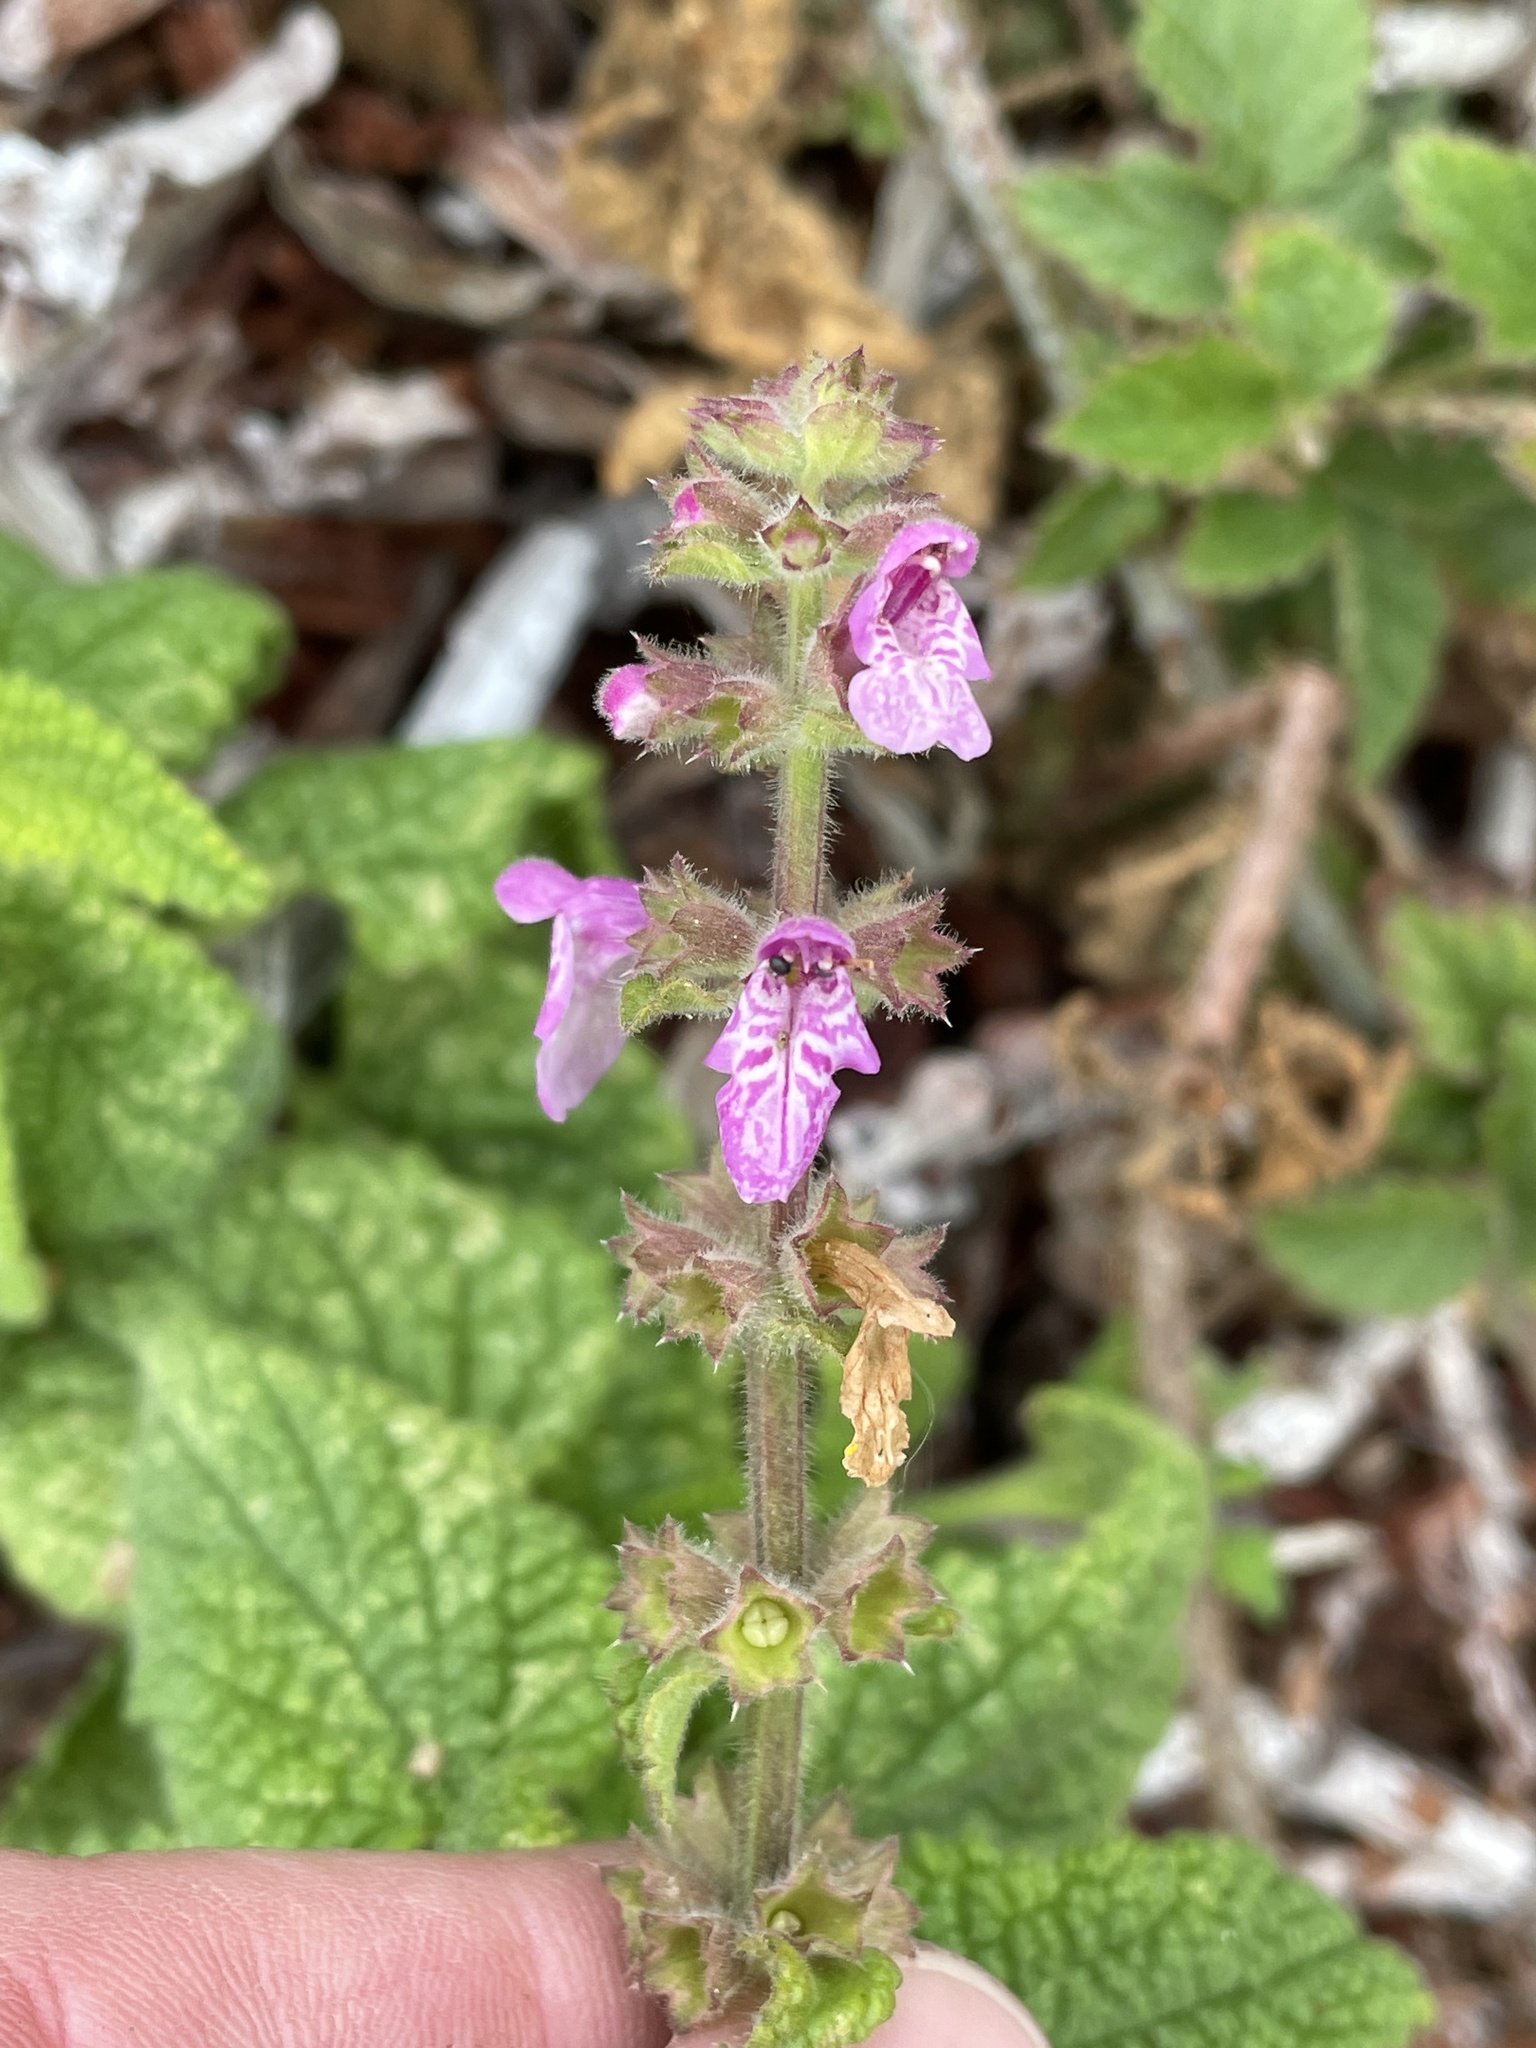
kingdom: Plantae
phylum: Tracheophyta
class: Magnoliopsida
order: Lamiales
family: Lamiaceae
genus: Stachys
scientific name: Stachys bullata
